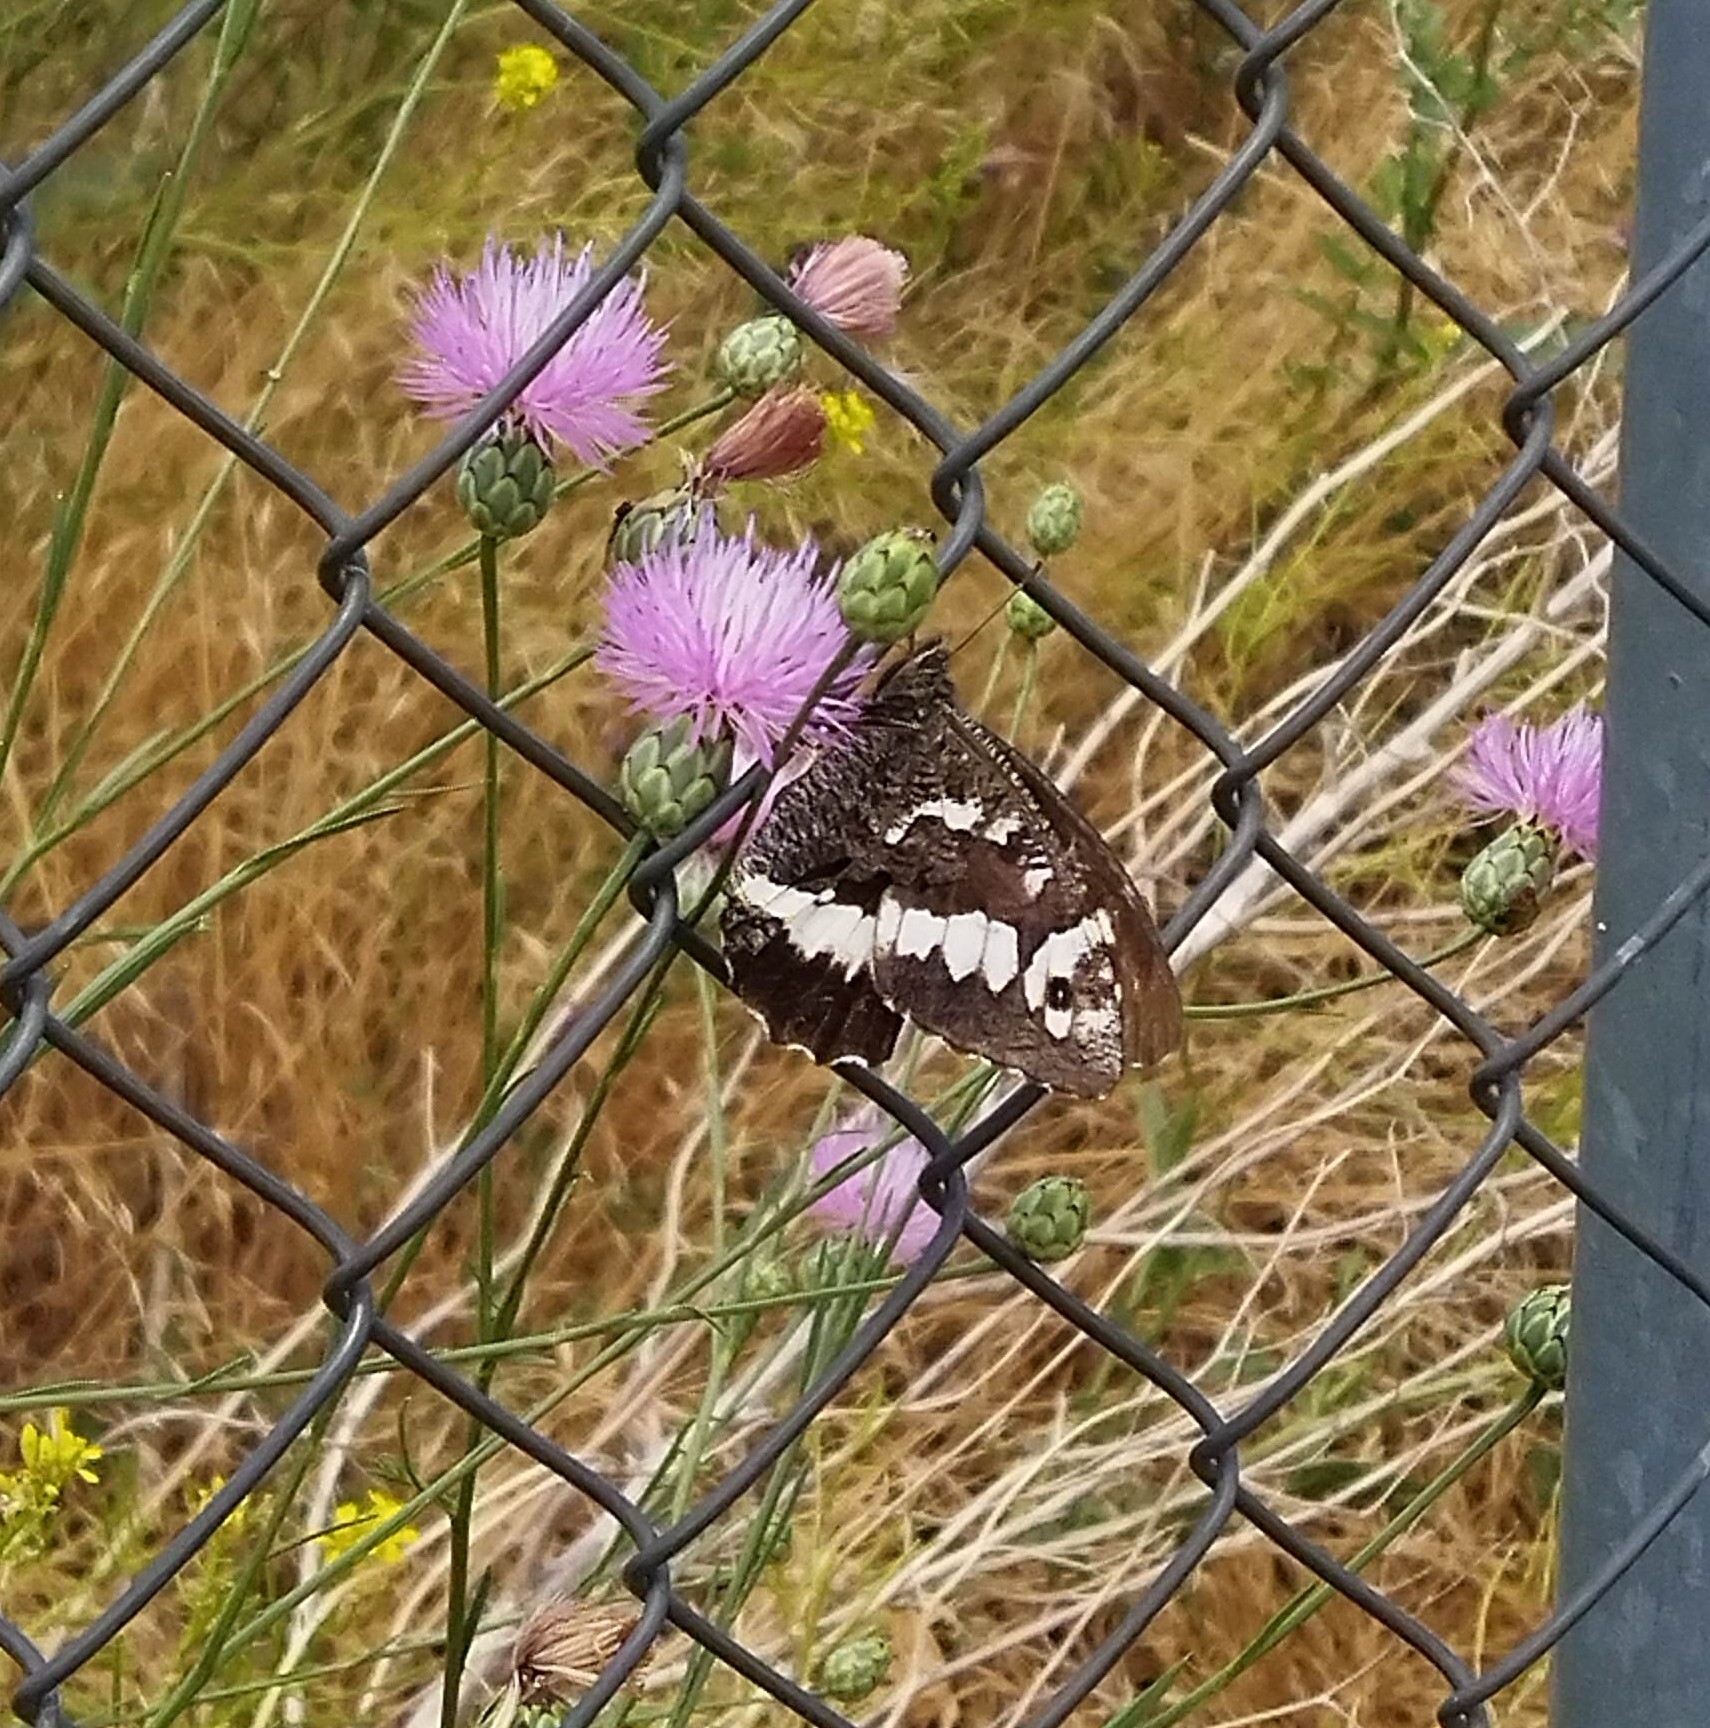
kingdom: Animalia
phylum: Arthropoda
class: Insecta
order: Lepidoptera
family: Lycaenidae
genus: Loweia
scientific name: Loweia tityrus
